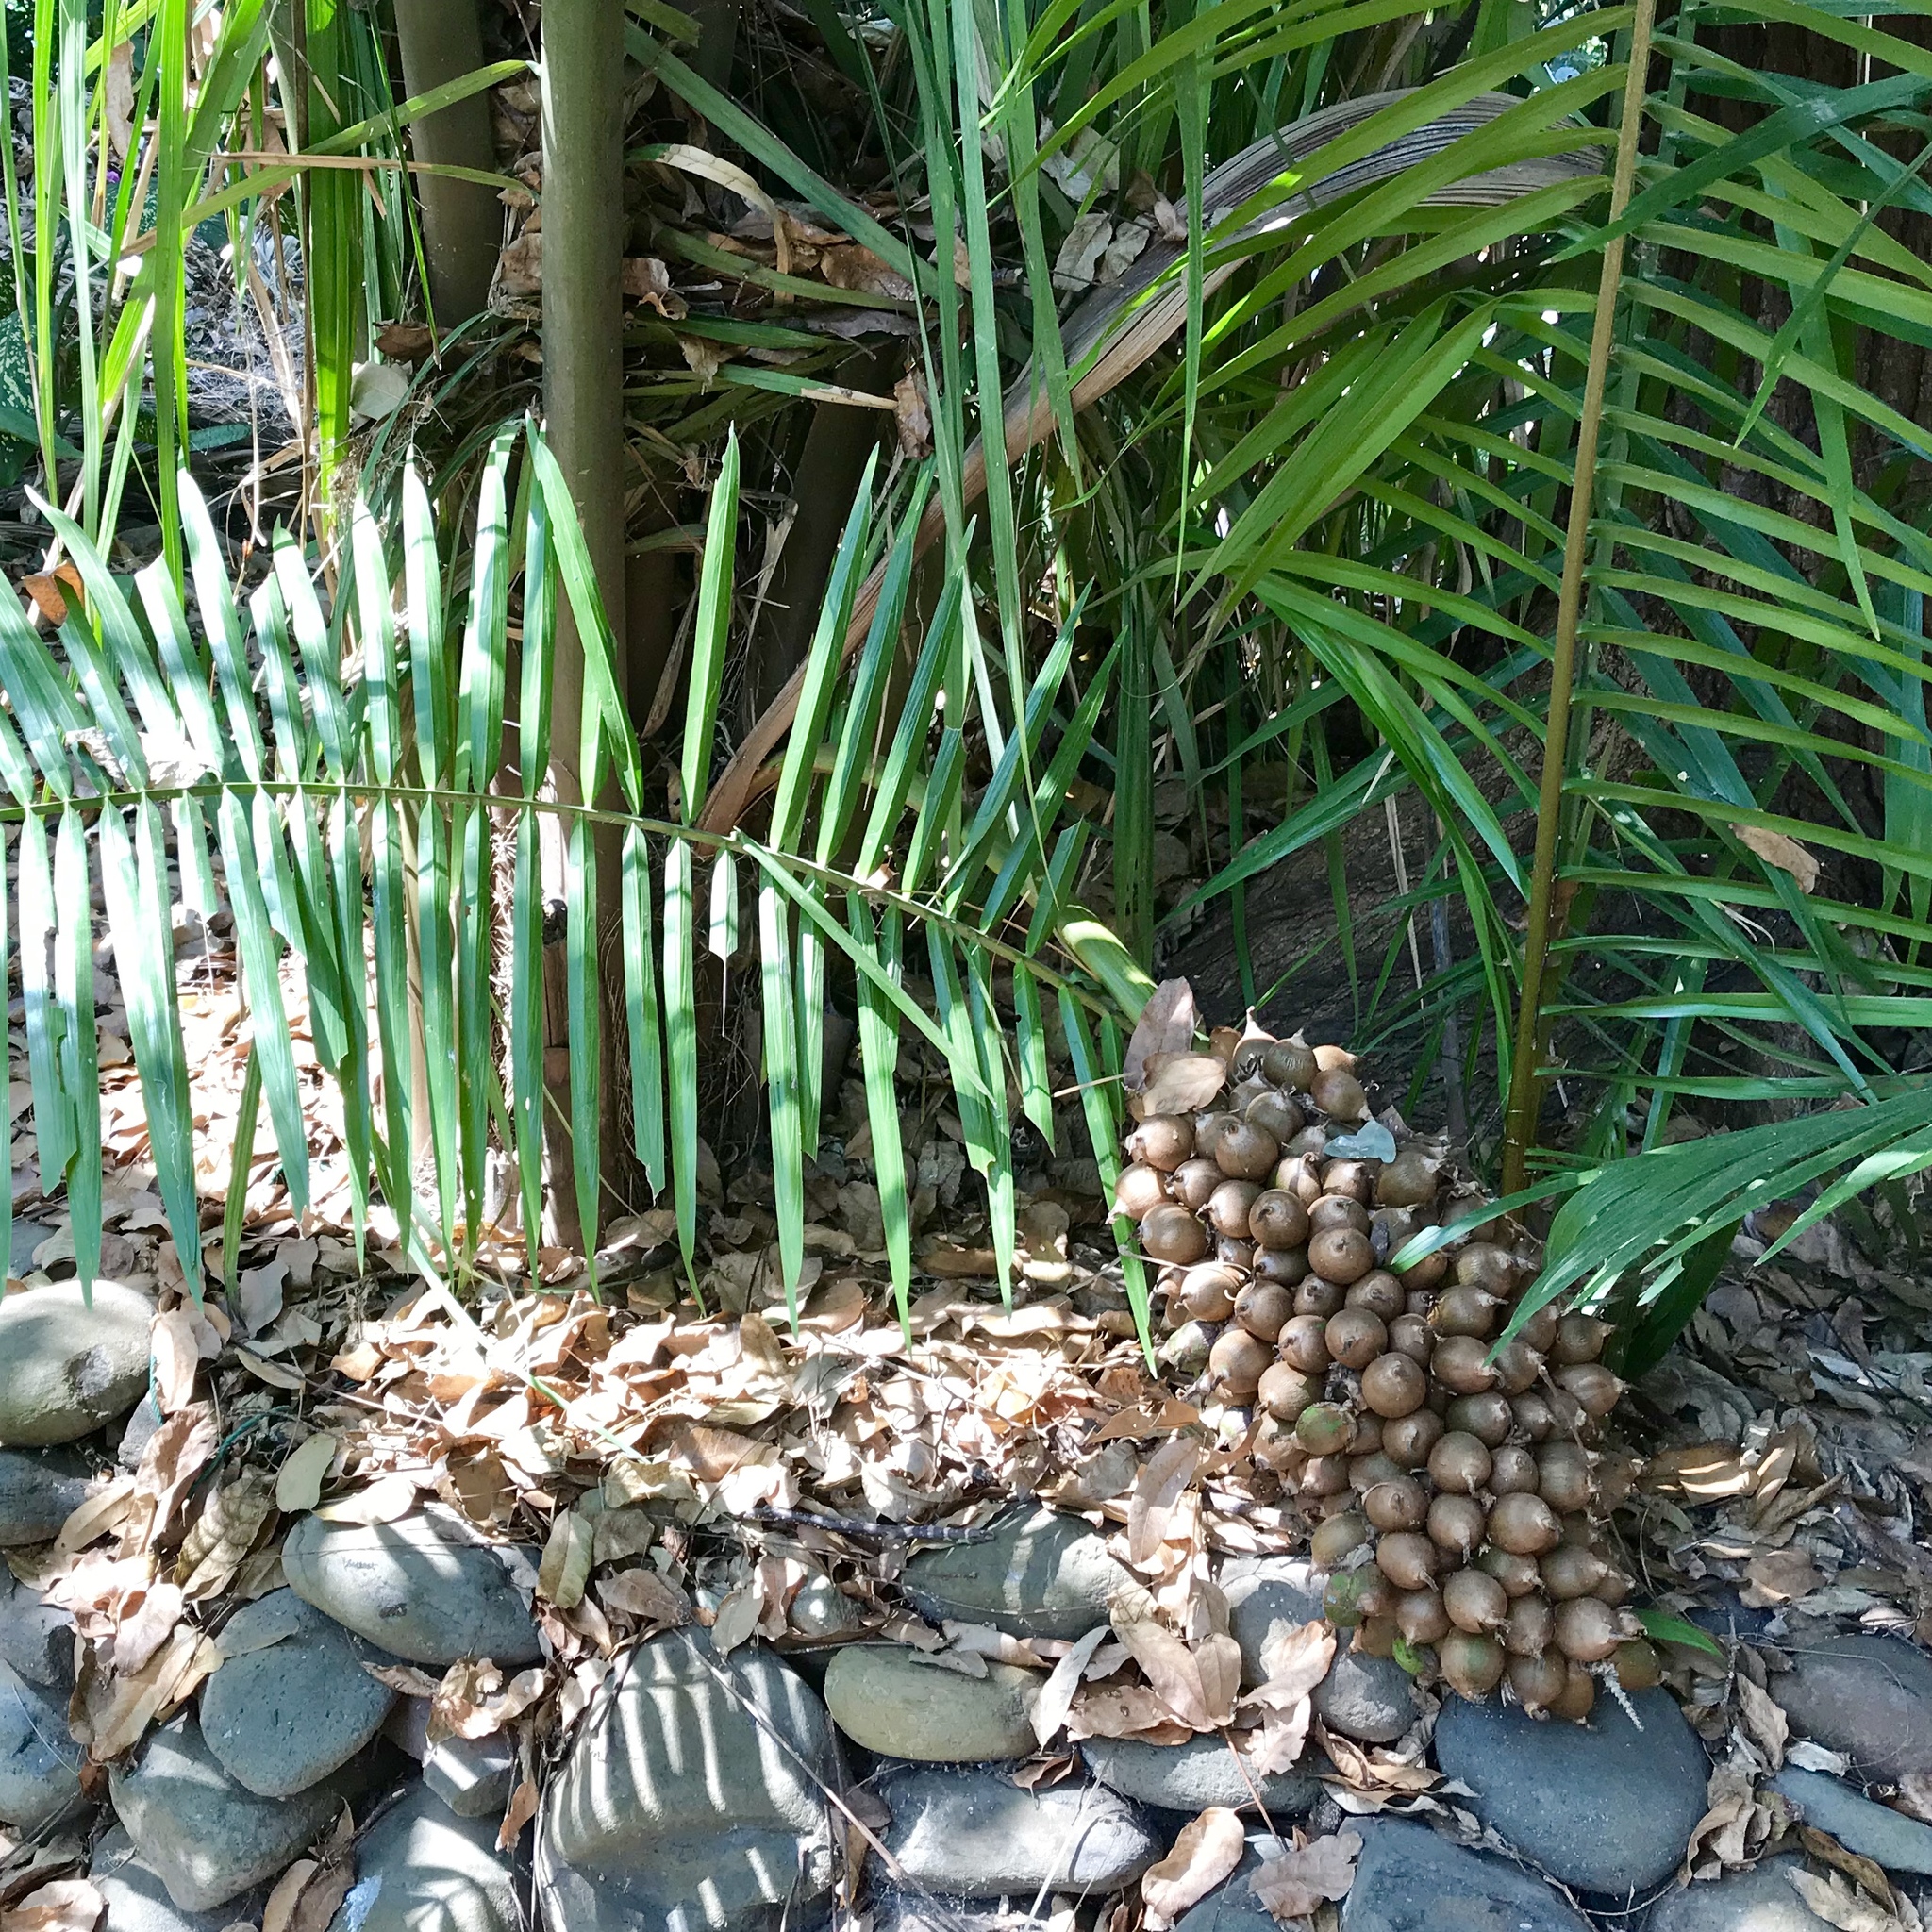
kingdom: Plantae
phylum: Tracheophyta
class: Liliopsida
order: Arecales
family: Arecaceae
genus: Attalea
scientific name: Attalea guacuyule
